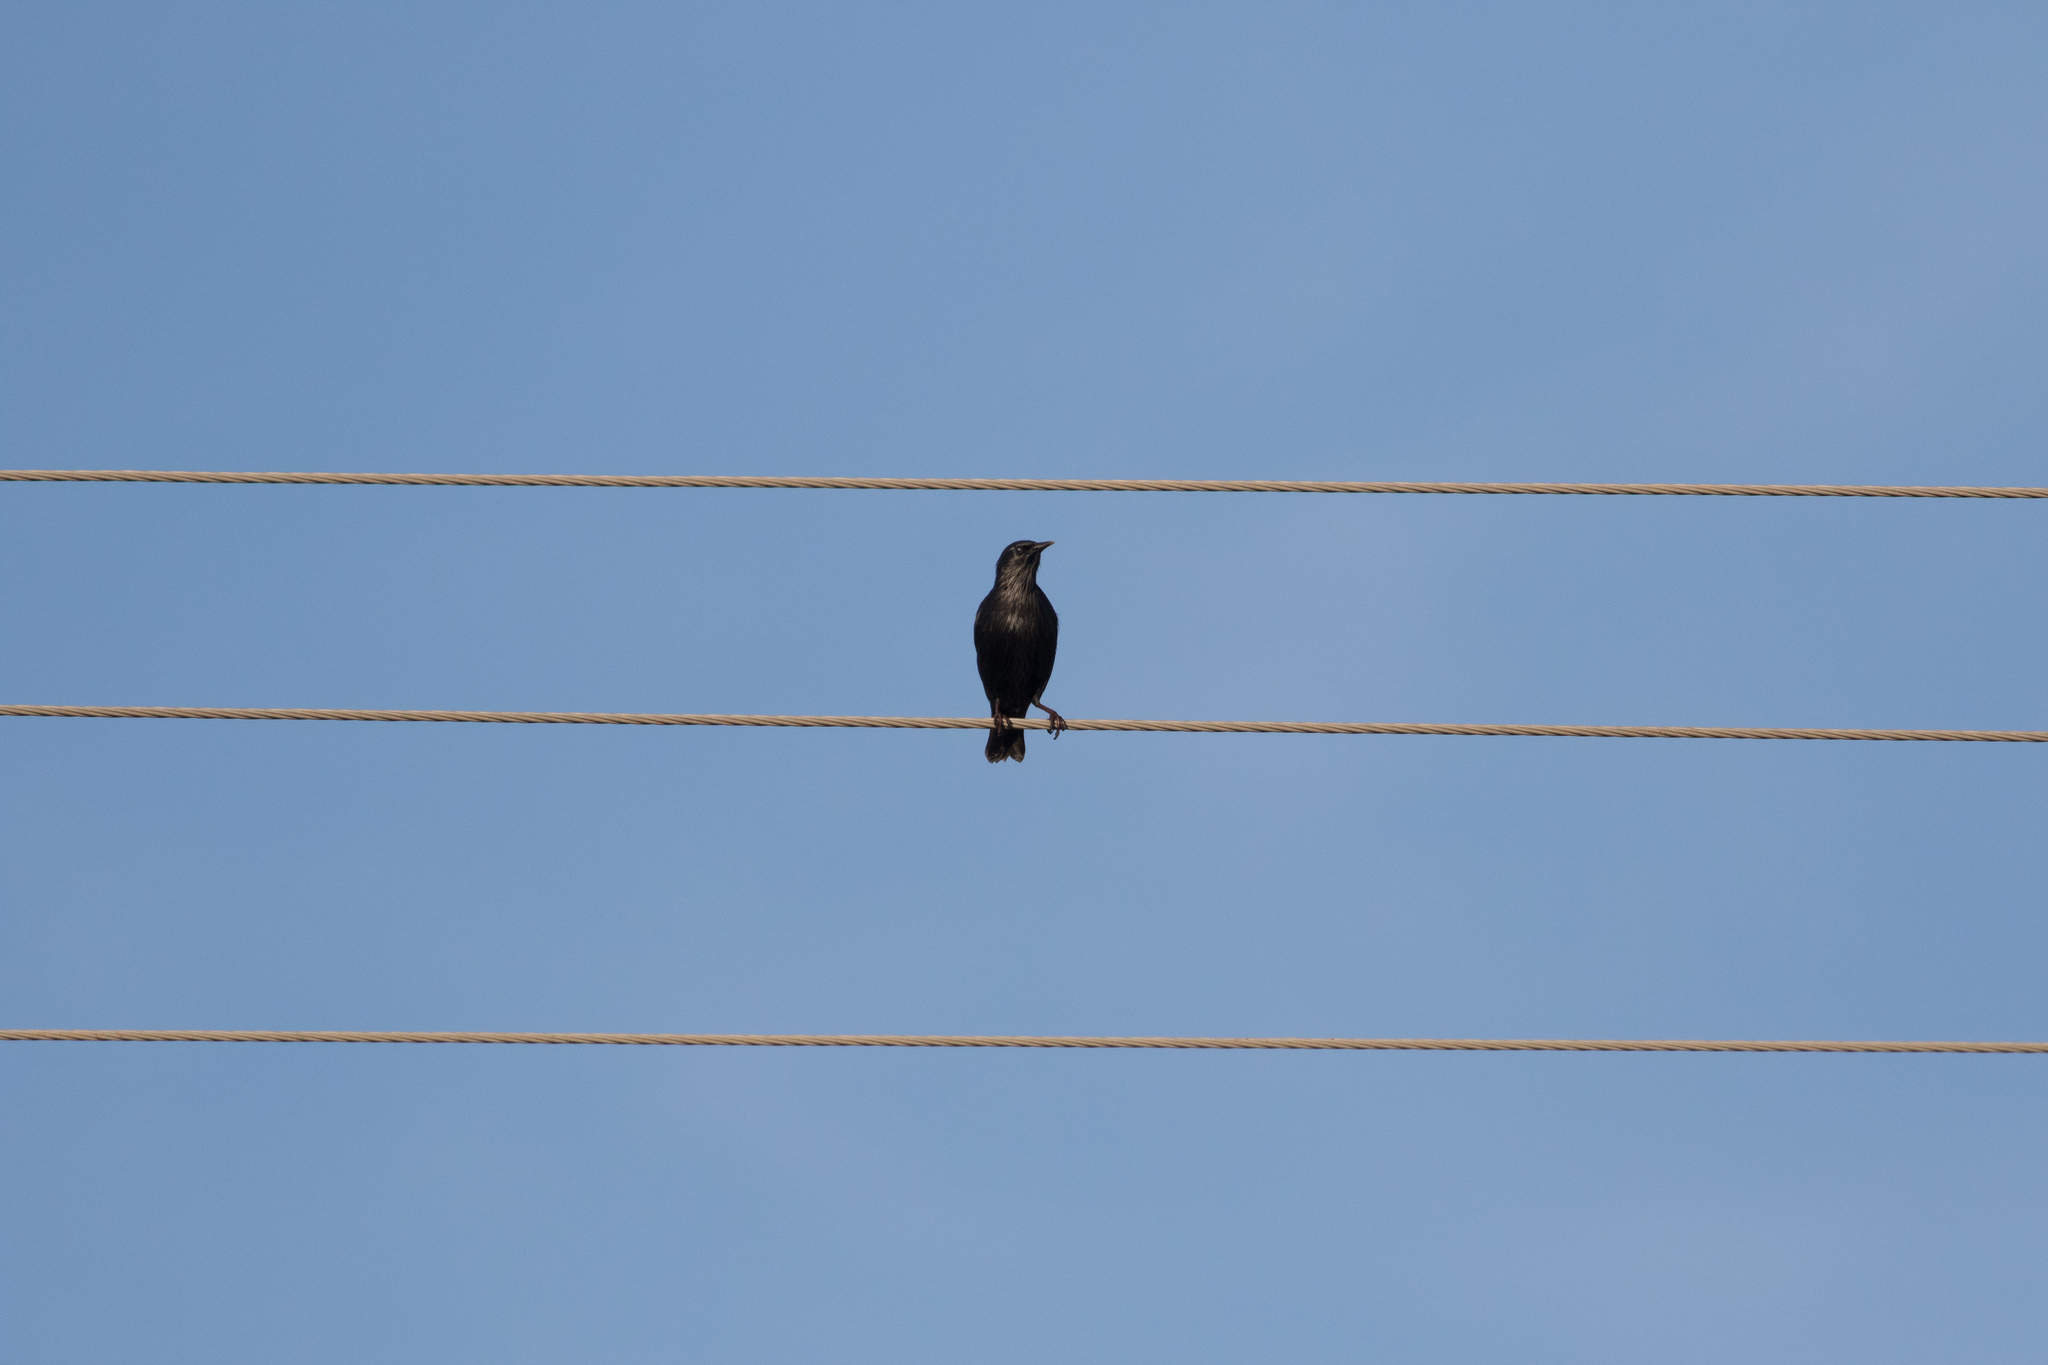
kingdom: Animalia
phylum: Chordata
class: Aves
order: Passeriformes
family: Sturnidae
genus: Sturnus
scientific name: Sturnus unicolor
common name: Spotless starling
